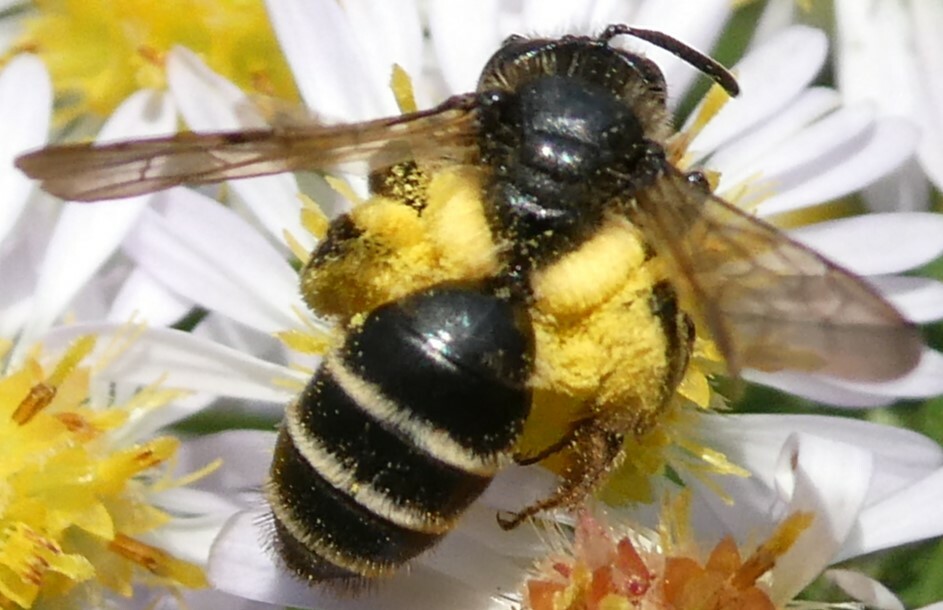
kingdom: Animalia
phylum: Arthropoda
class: Insecta
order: Hymenoptera
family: Andrenidae
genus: Andrena
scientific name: Andrena robervalensis
